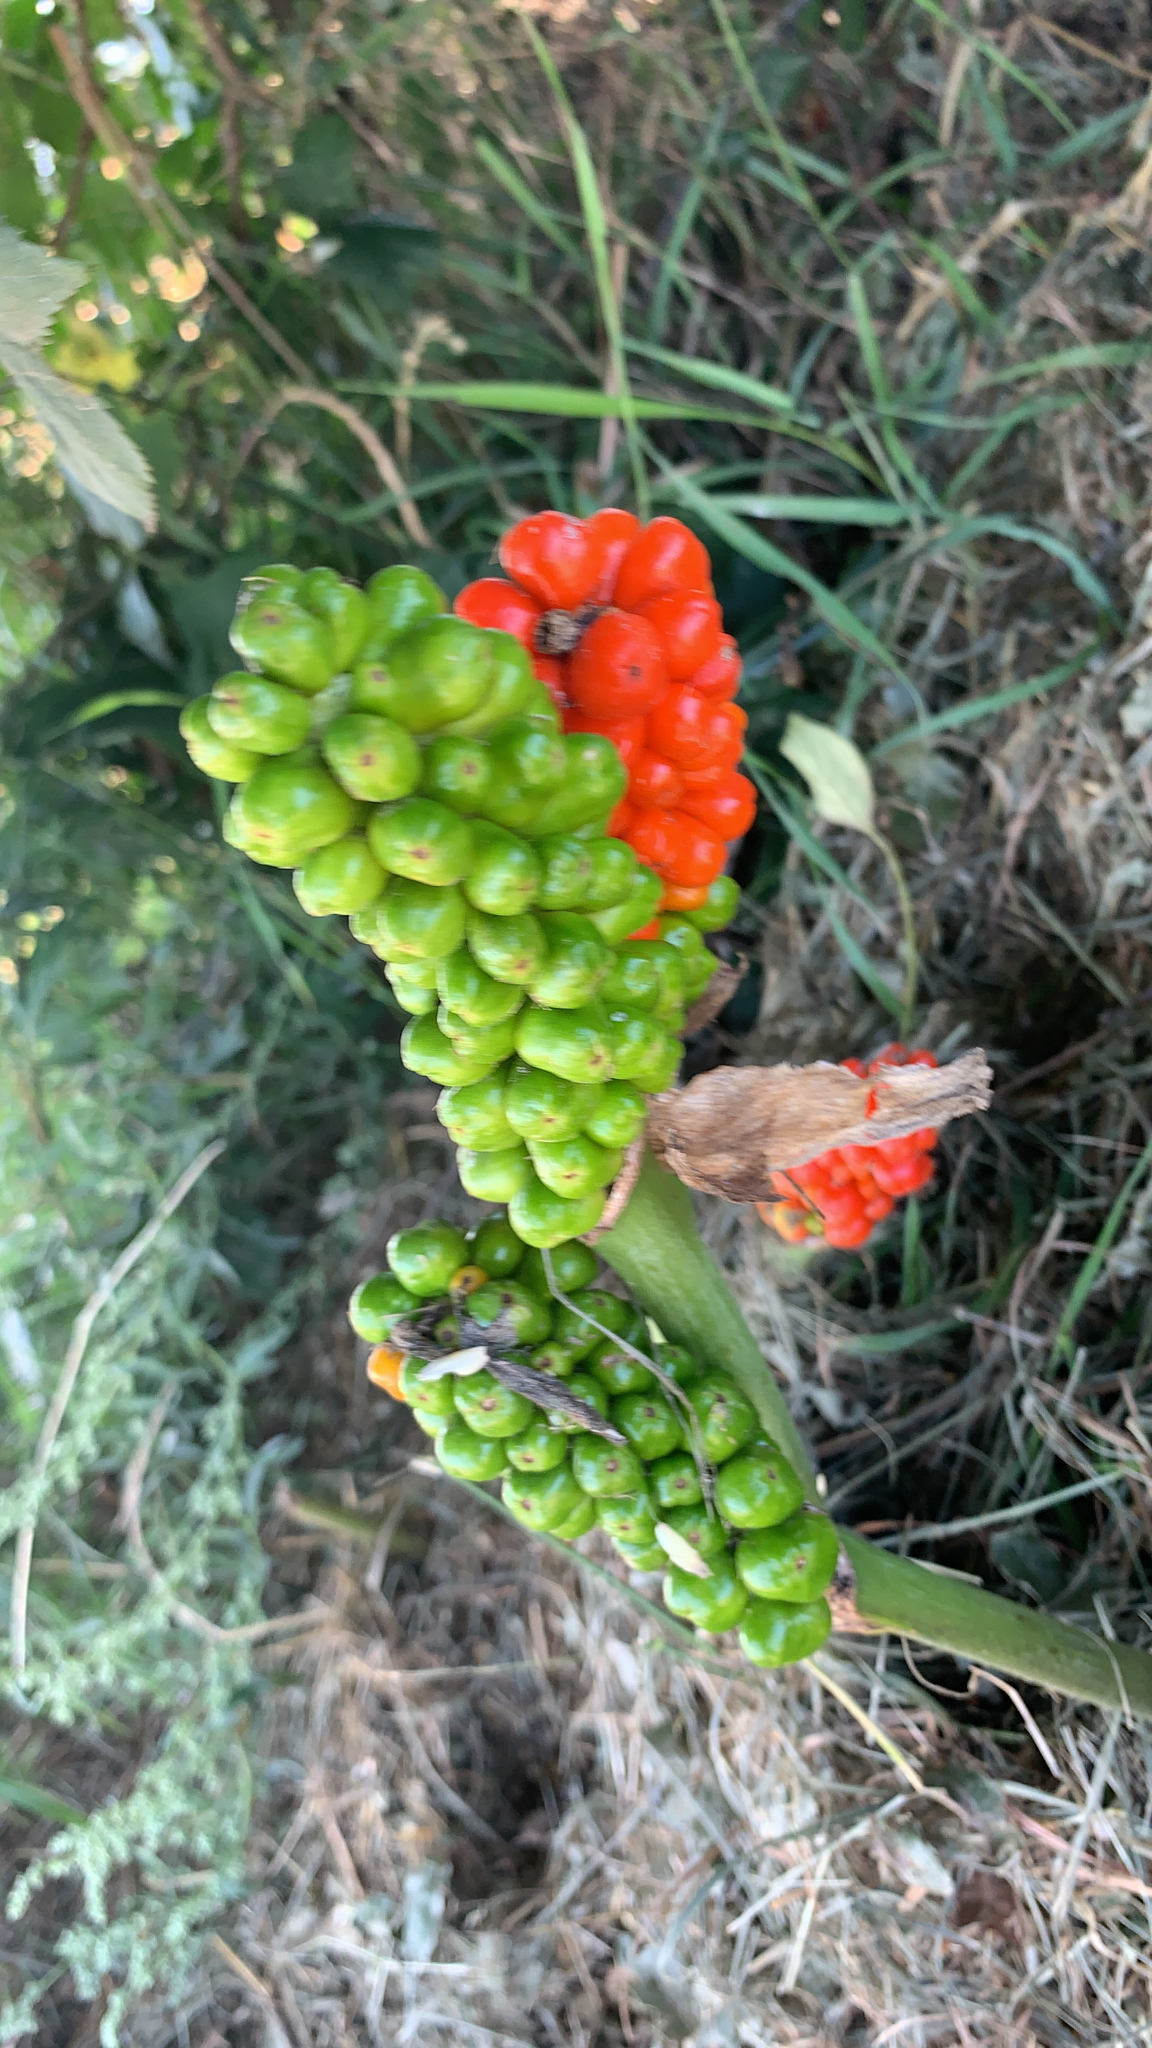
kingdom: Plantae
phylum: Tracheophyta
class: Liliopsida
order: Alismatales
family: Araceae
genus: Arum
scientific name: Arum
